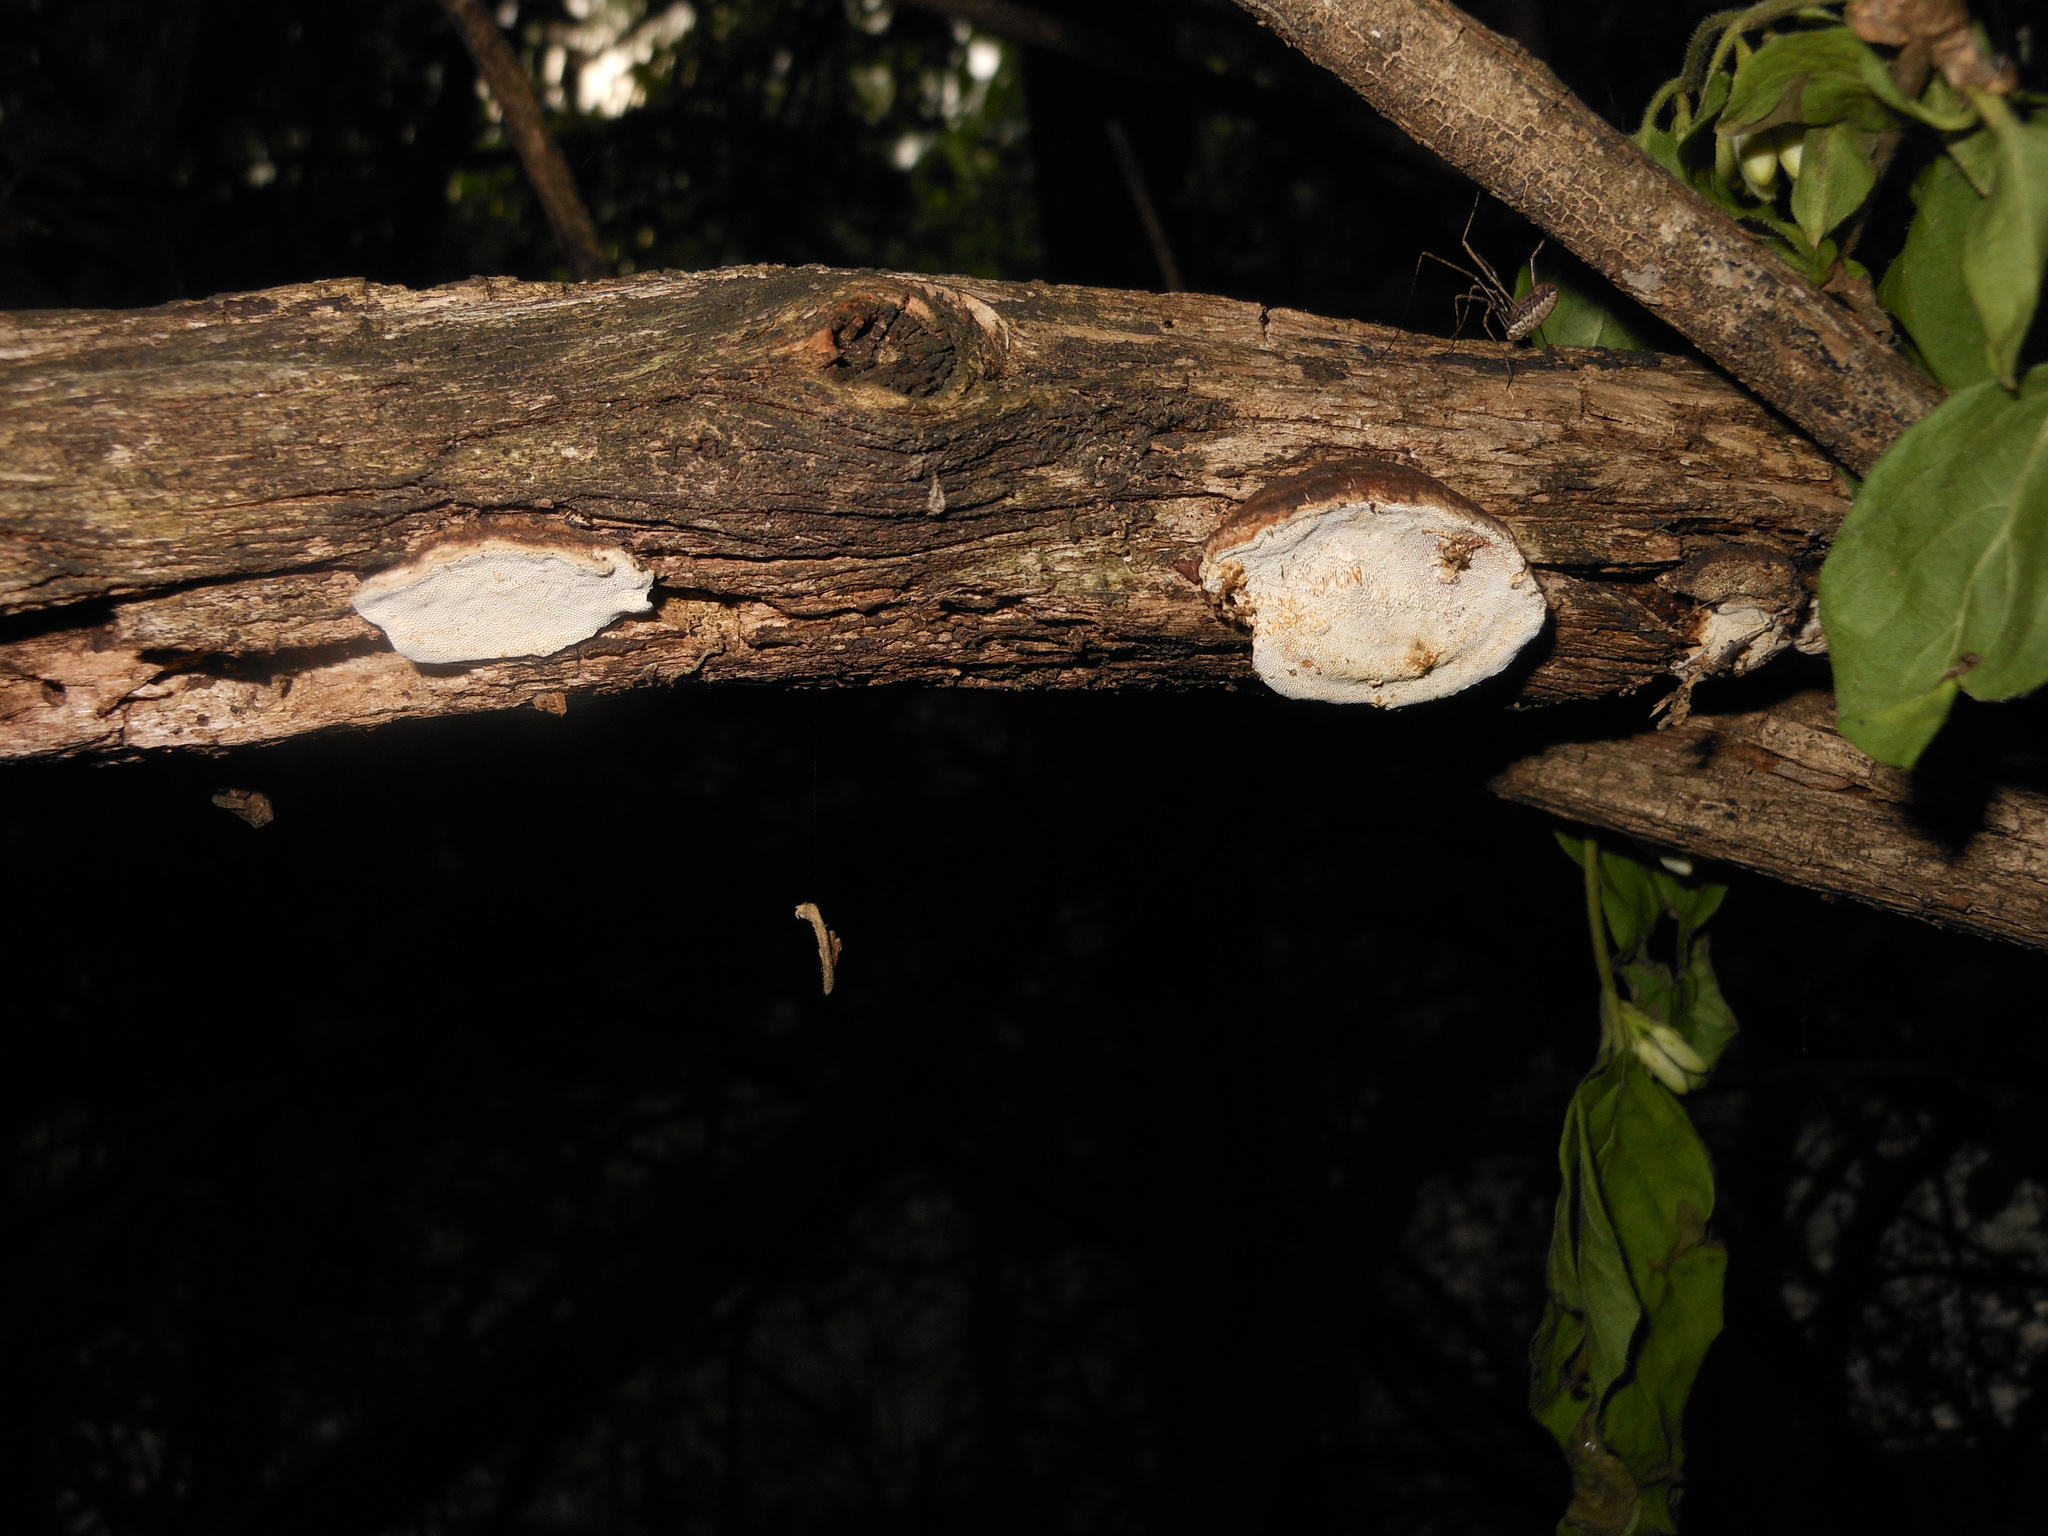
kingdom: Fungi
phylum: Basidiomycota
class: Agaricomycetes
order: Polyporales
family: Polyporaceae
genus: Perenniporia
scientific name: Perenniporia ohiensis
